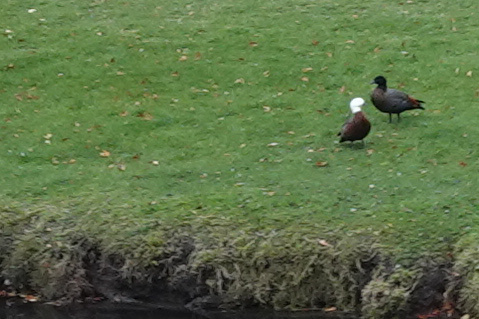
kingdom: Animalia
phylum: Chordata
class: Aves
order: Anseriformes
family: Anatidae
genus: Tadorna
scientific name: Tadorna variegata
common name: Paradise shelduck
